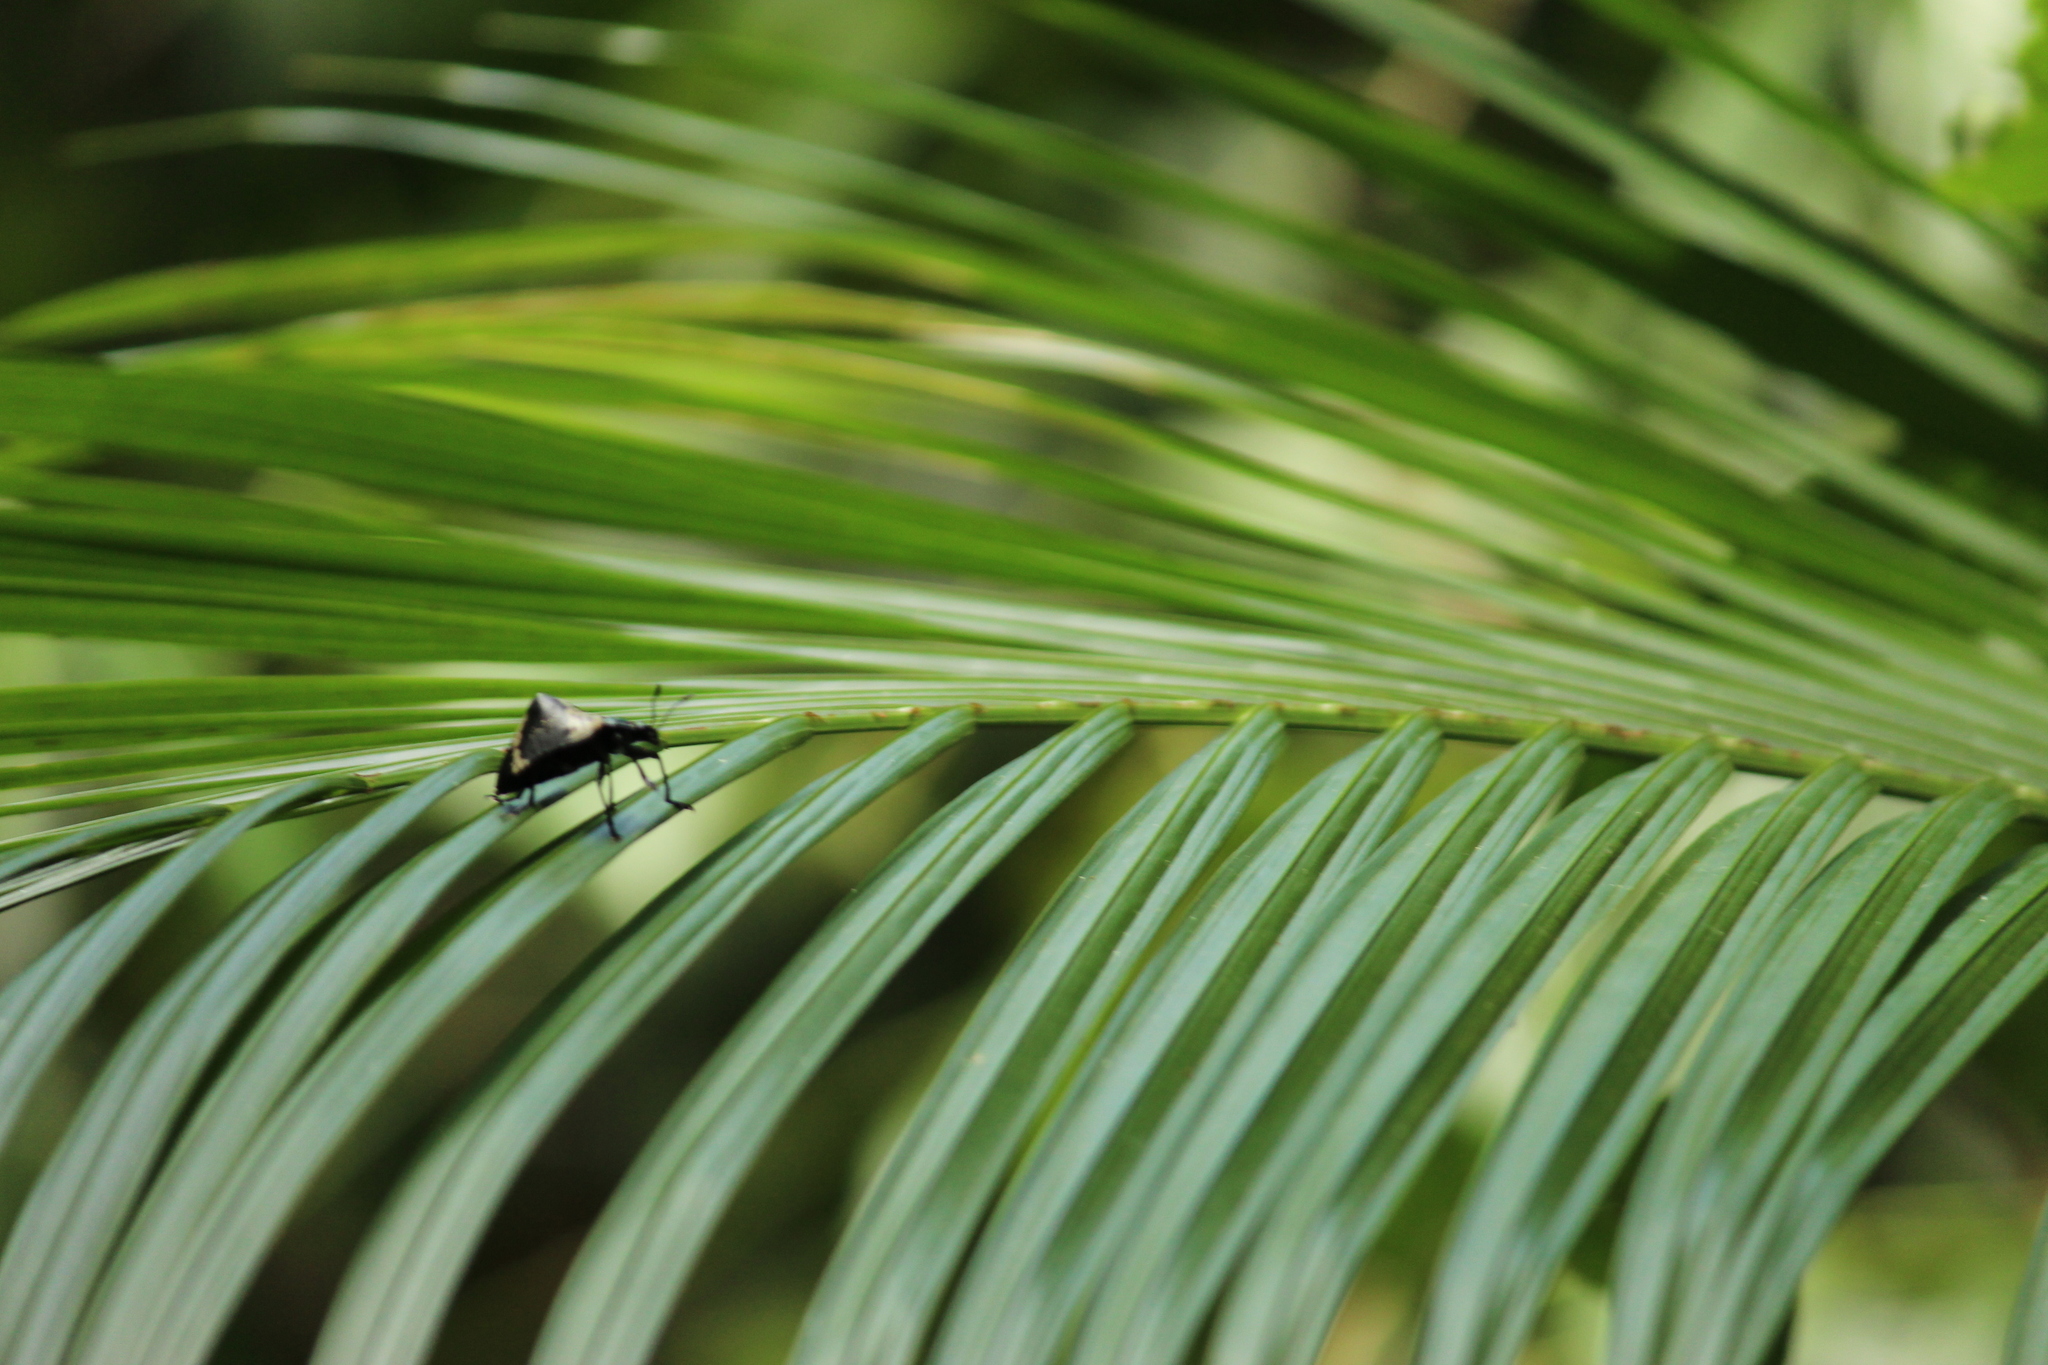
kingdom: Animalia
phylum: Arthropoda
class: Insecta
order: Coleoptera
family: Erotylidae
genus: Gibbifer
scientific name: Gibbifer
